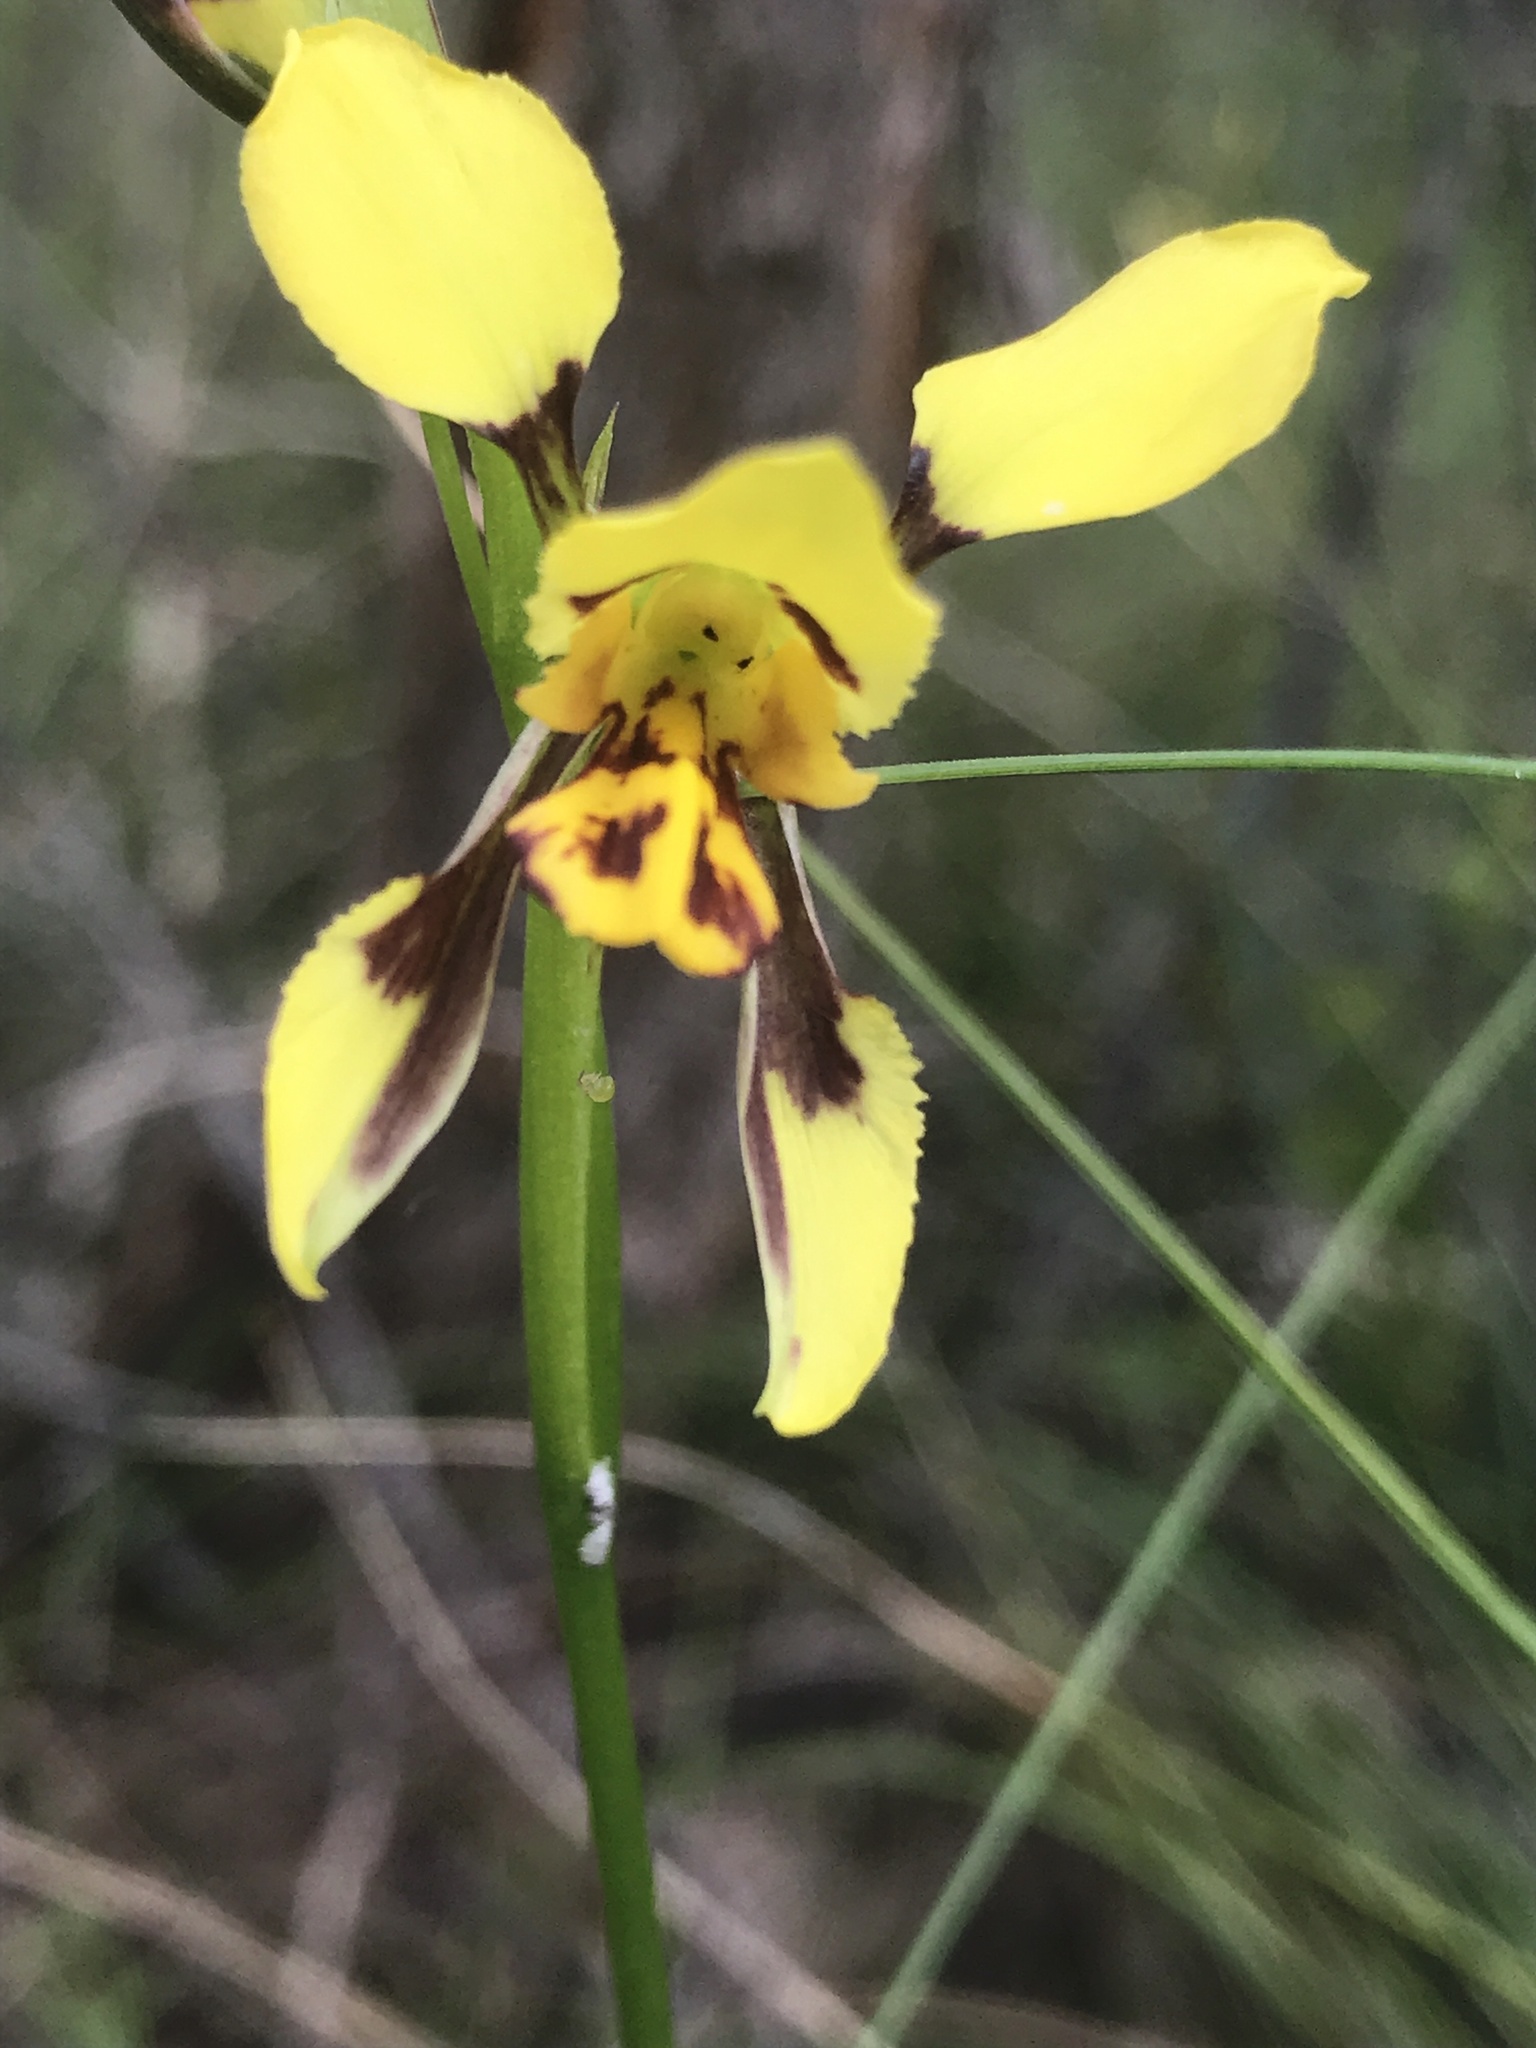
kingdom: Plantae
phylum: Tracheophyta
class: Liliopsida
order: Asparagales
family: Orchidaceae
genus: Diuris
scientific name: Diuris sulphurea
